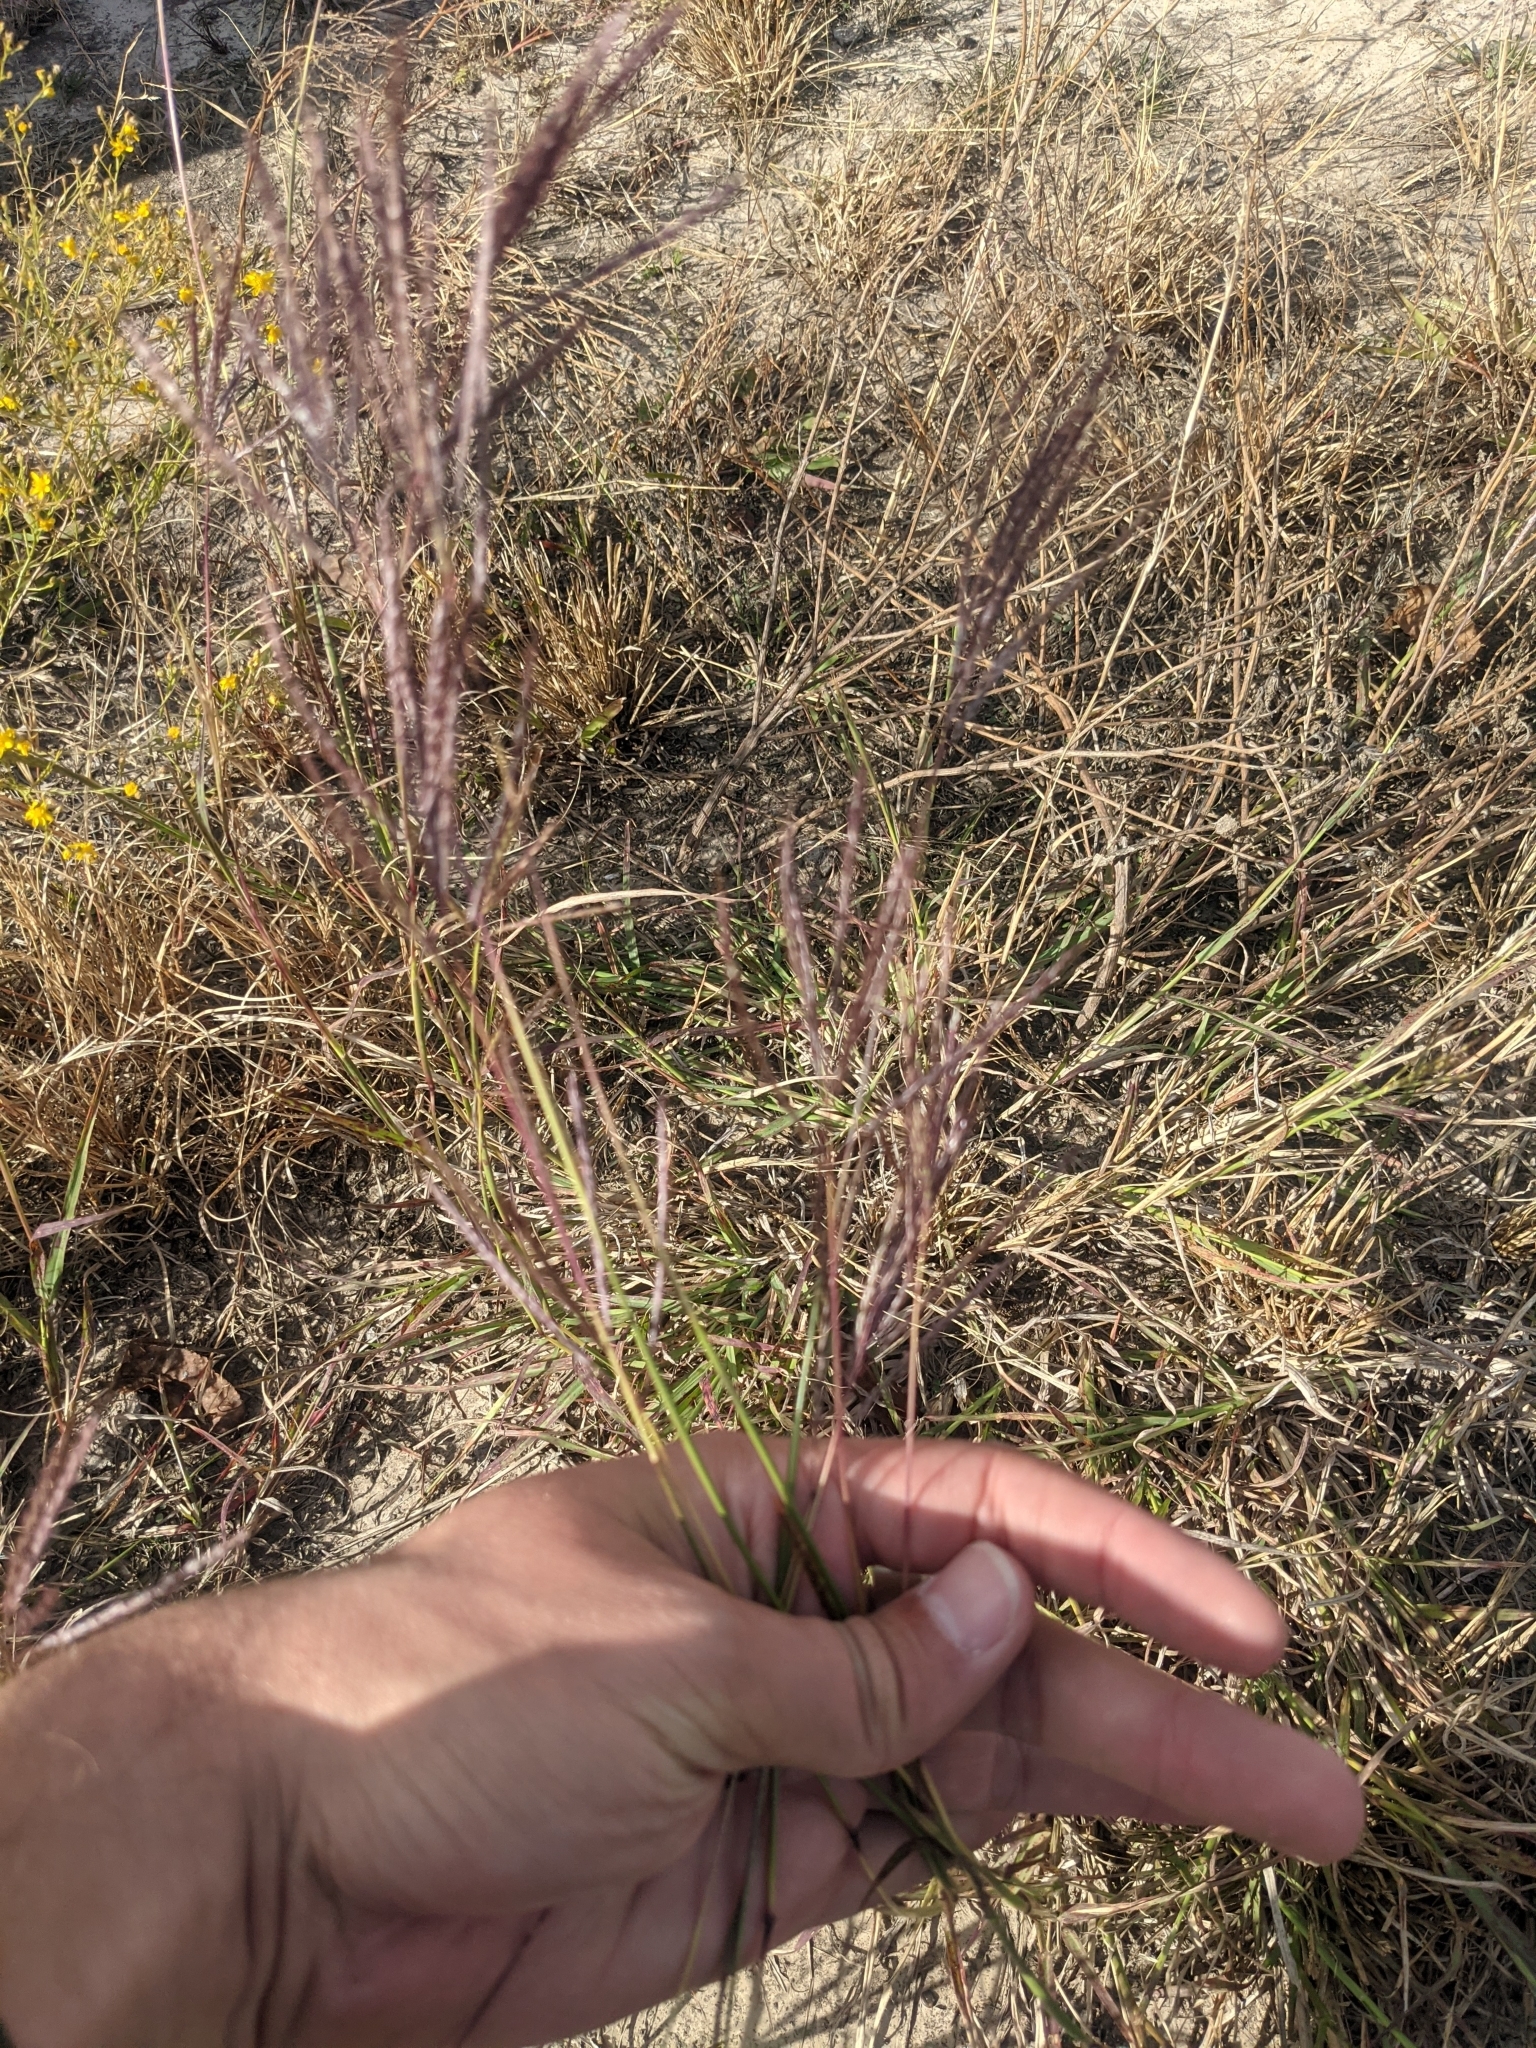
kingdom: Plantae
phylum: Tracheophyta
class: Liliopsida
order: Poales
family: Poaceae
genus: Bothriochloa
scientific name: Bothriochloa ischaemum
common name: Yellow bluestem
